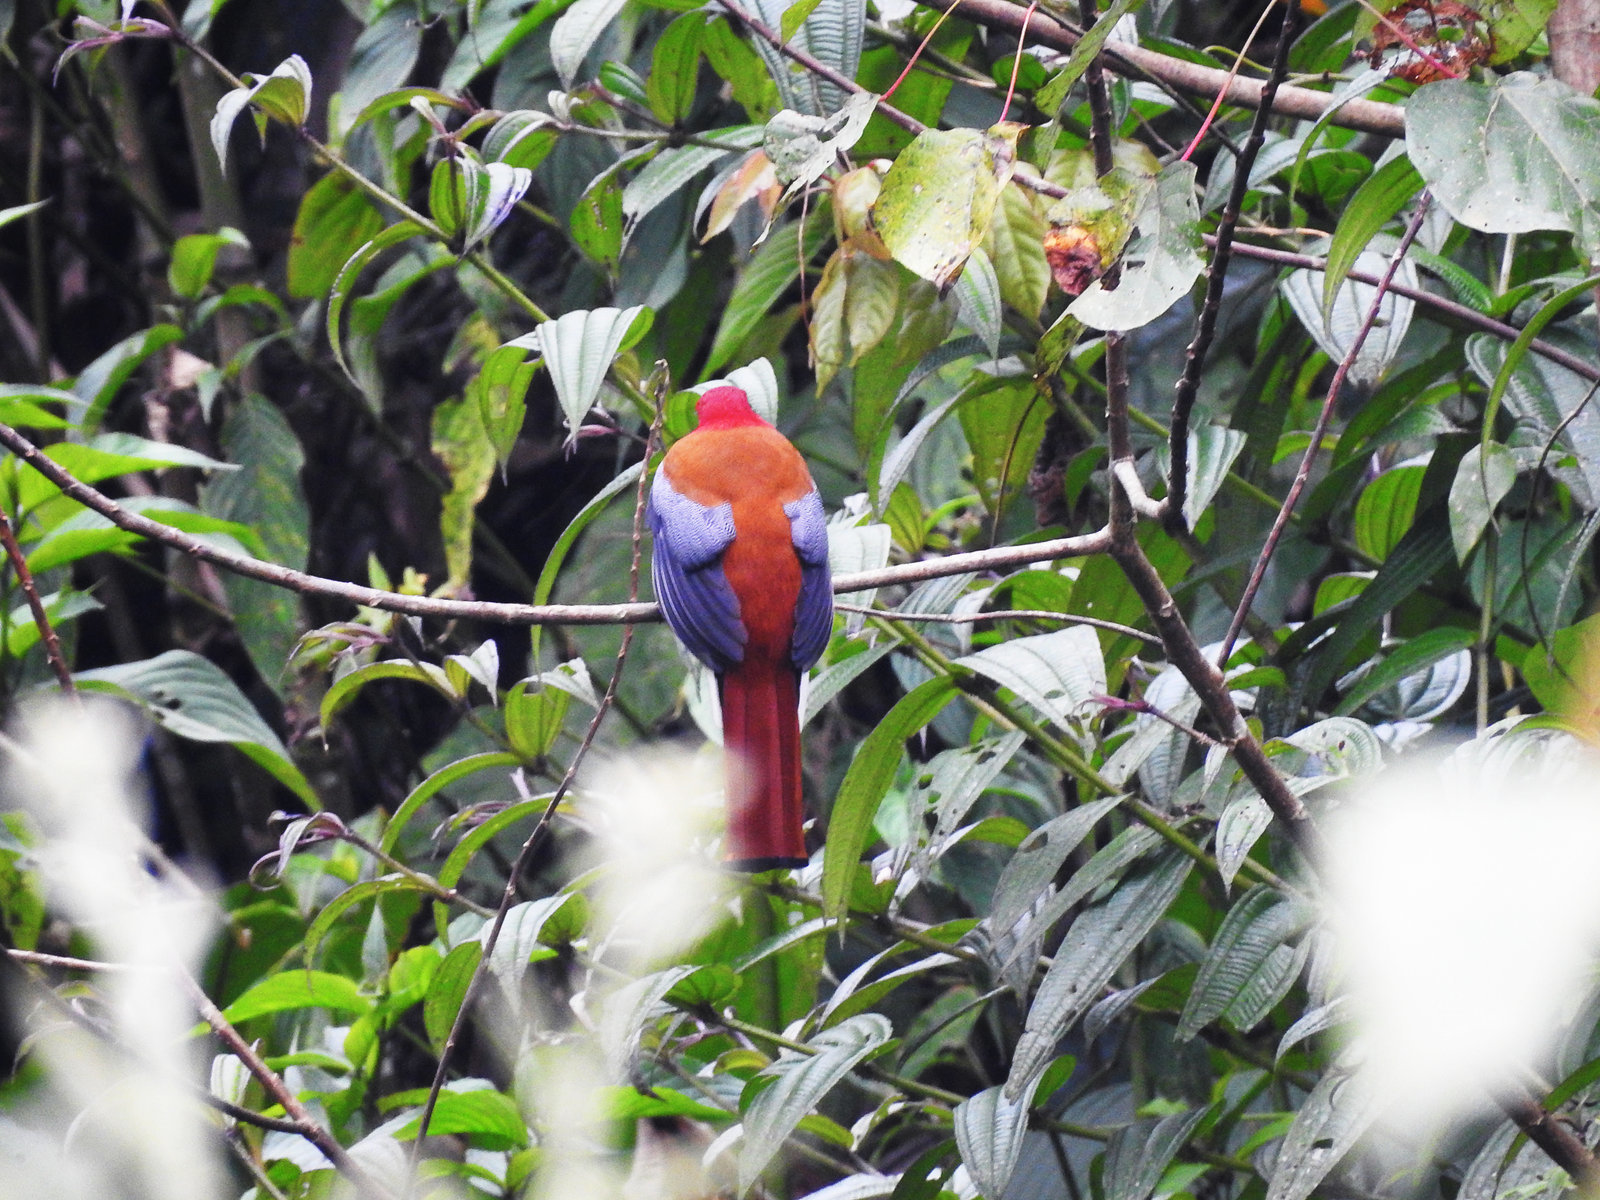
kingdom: Animalia
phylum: Chordata
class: Aves
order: Trogoniformes
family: Trogonidae
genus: Harpactes
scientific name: Harpactes erythrocephalus
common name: Red-headed trogon
